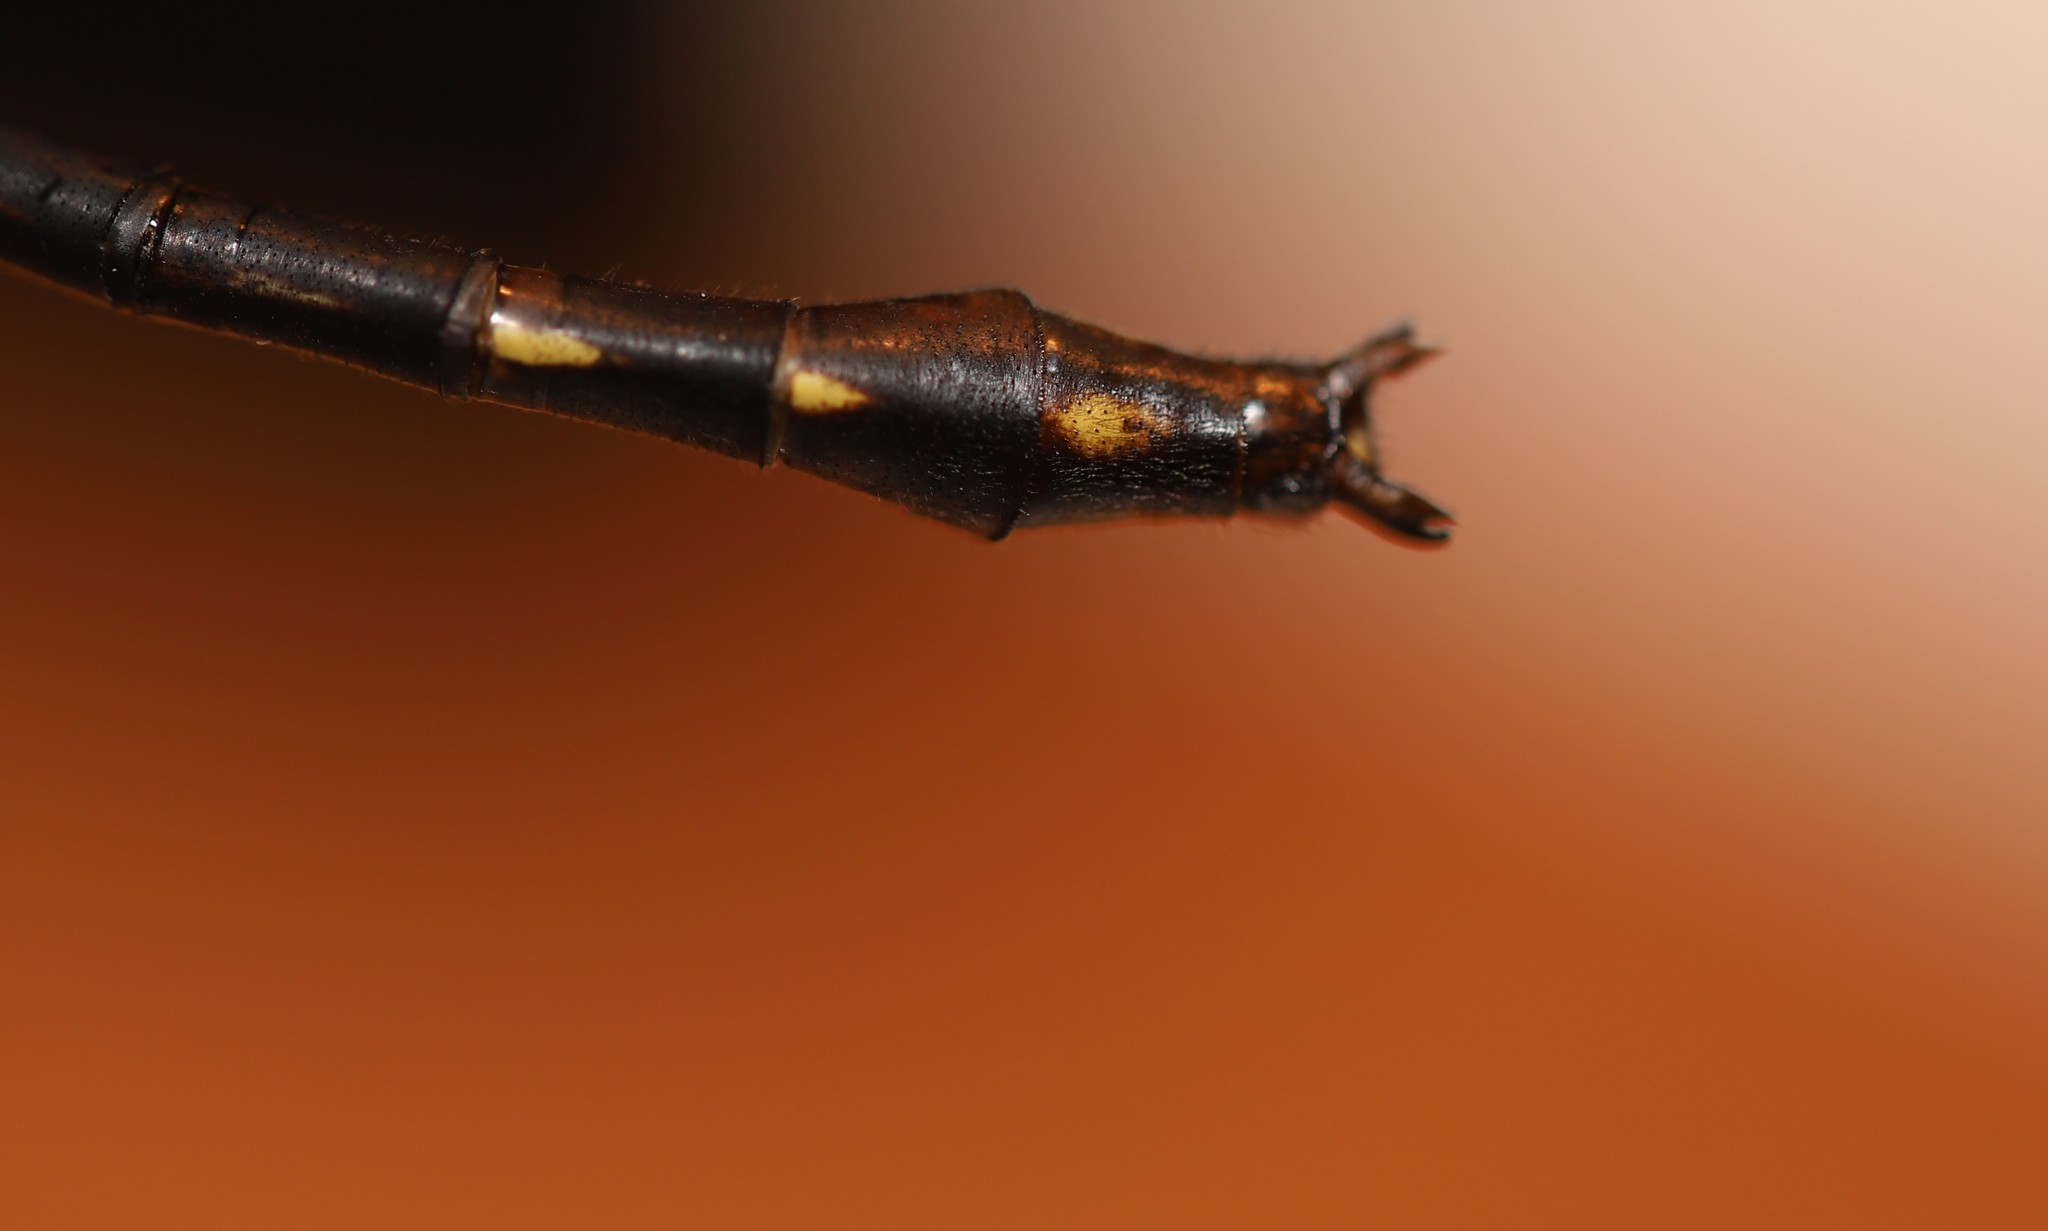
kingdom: Animalia
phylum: Arthropoda
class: Insecta
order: Odonata
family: Gomphidae
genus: Phanogomphus
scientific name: Phanogomphus lividus
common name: Ashy clubtail
